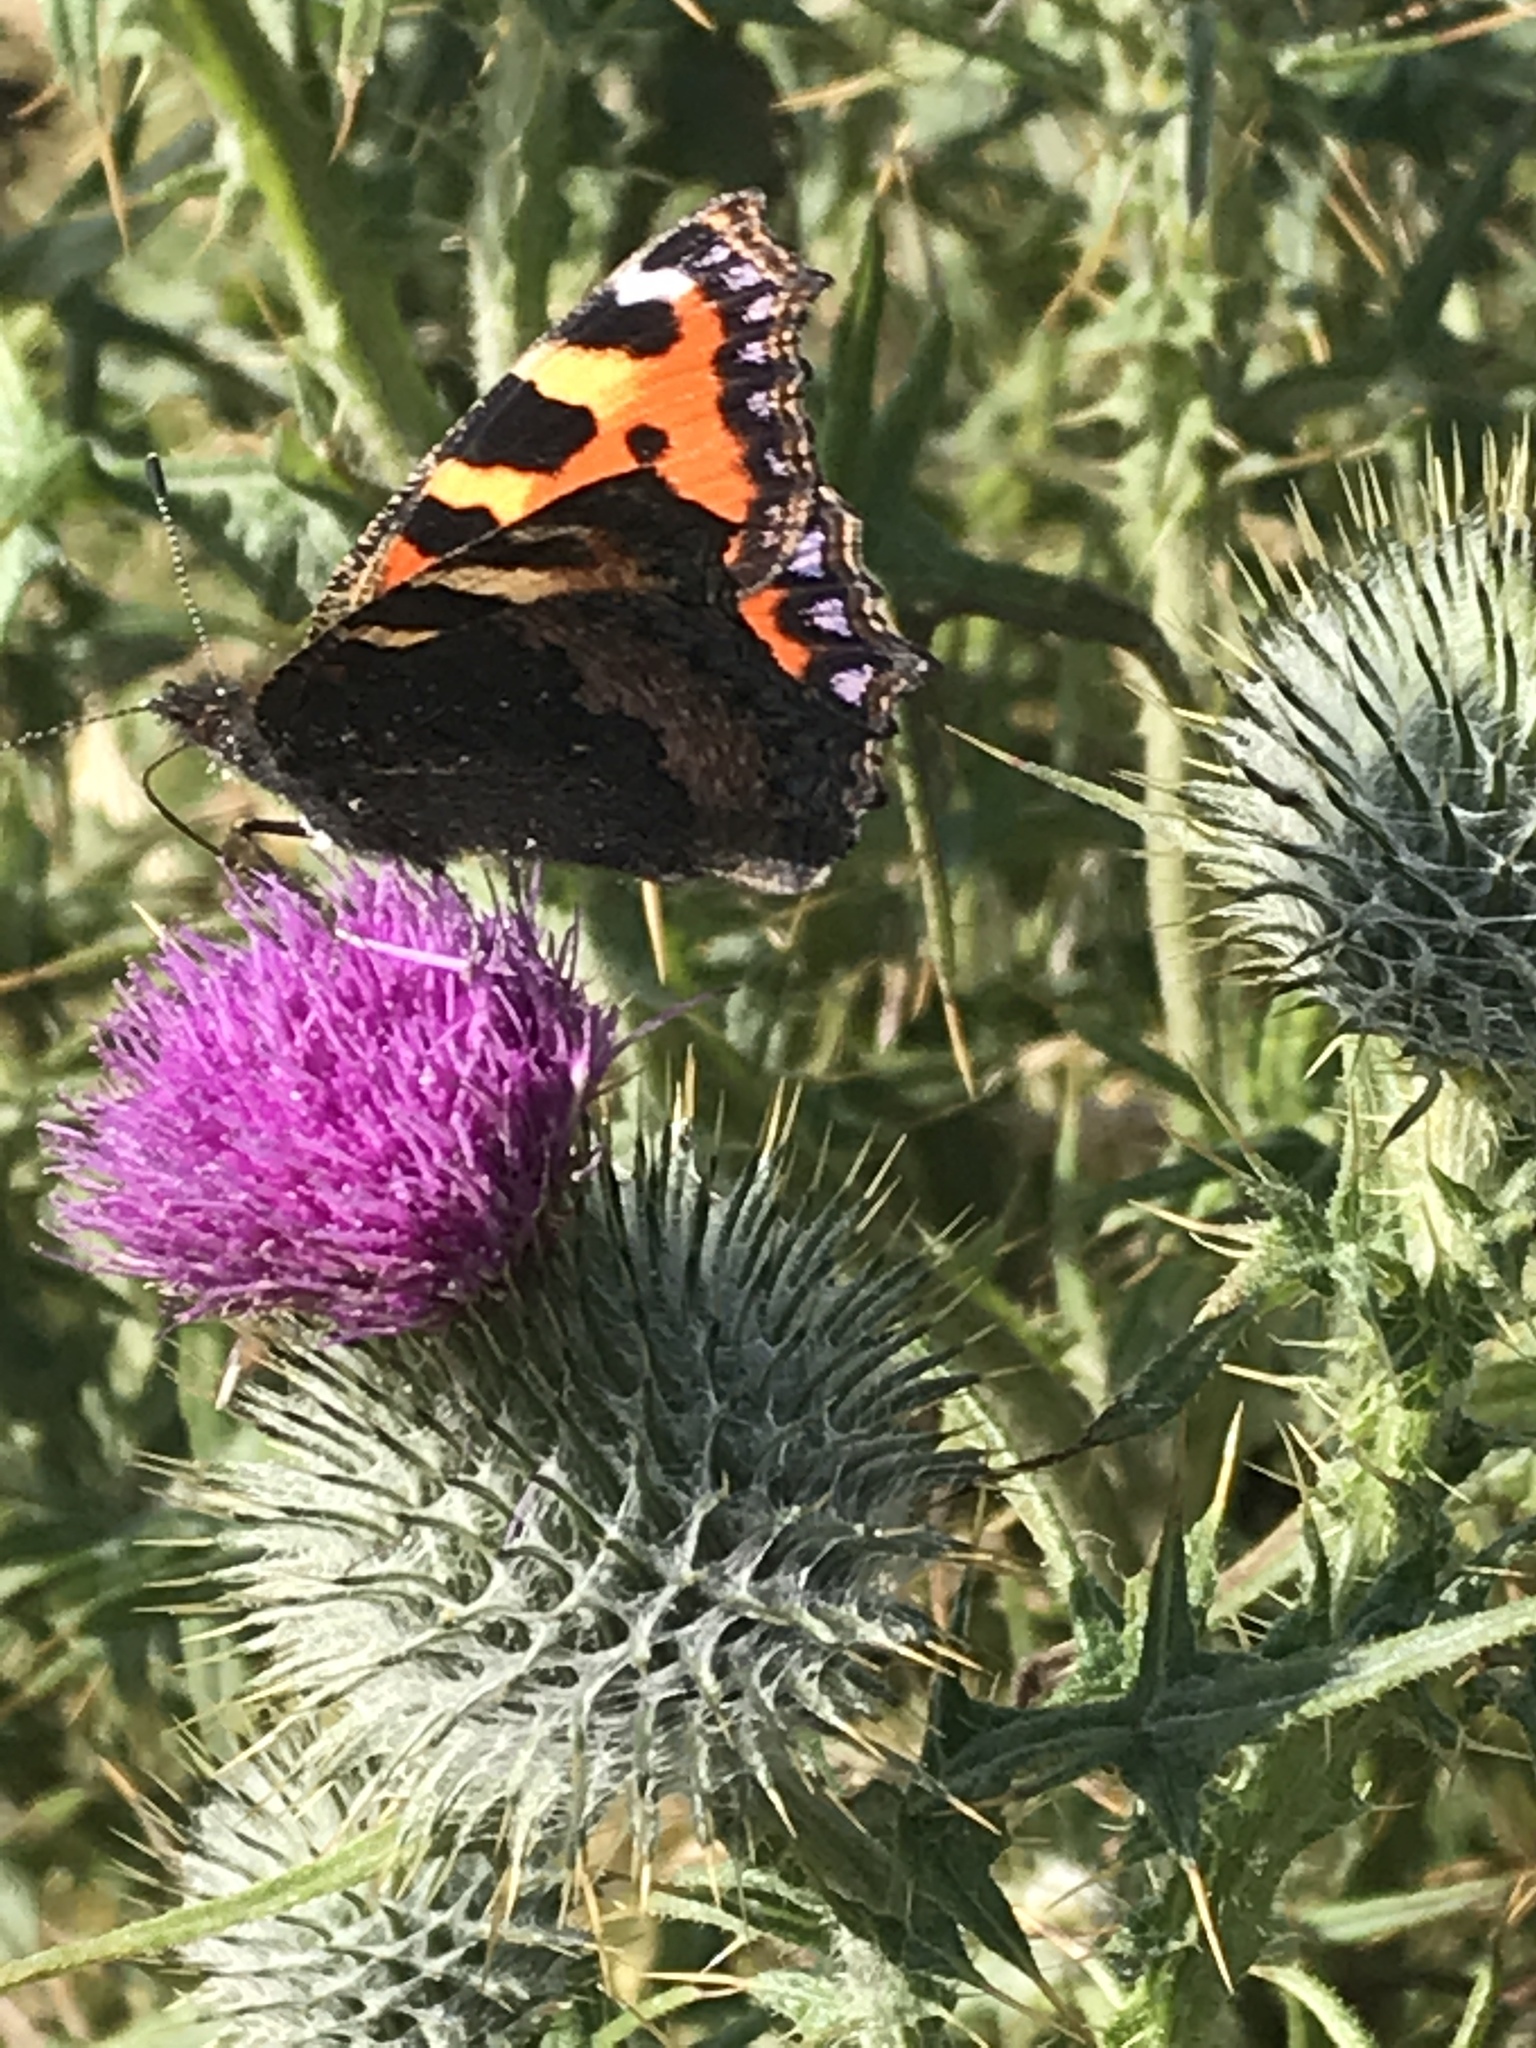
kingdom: Animalia
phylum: Arthropoda
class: Insecta
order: Lepidoptera
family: Nymphalidae
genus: Aglais
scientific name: Aglais urticae
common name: Small tortoiseshell
